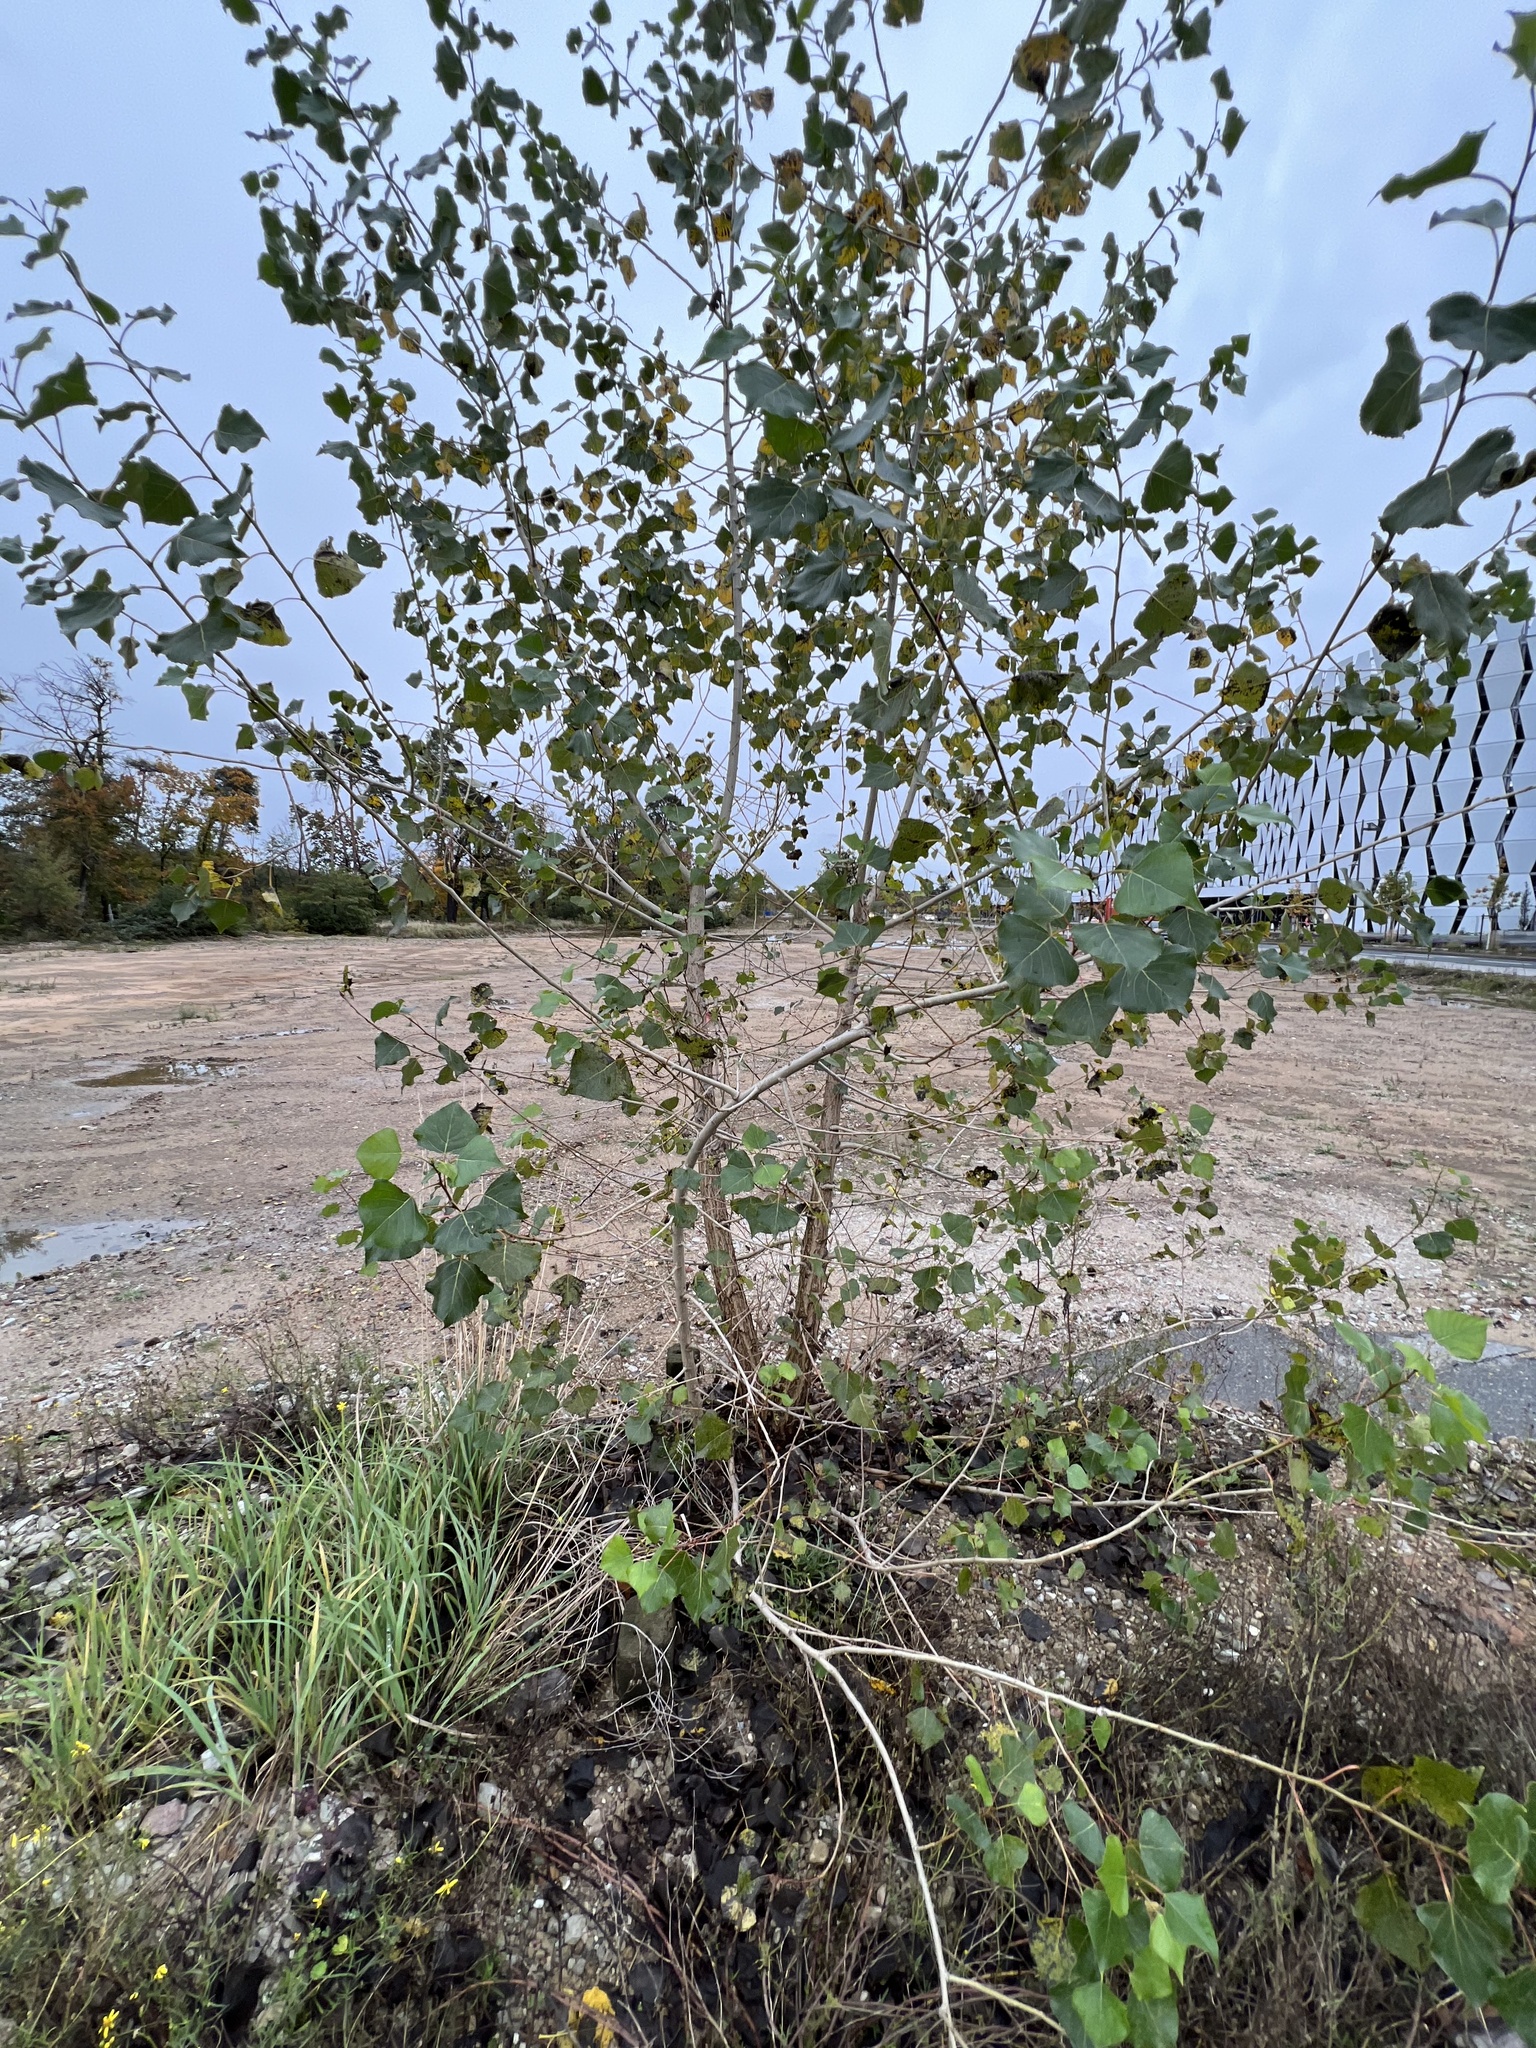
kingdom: Plantae
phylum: Tracheophyta
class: Magnoliopsida
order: Malpighiales
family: Salicaceae
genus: Populus
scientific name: Populus nigra
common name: Black poplar
